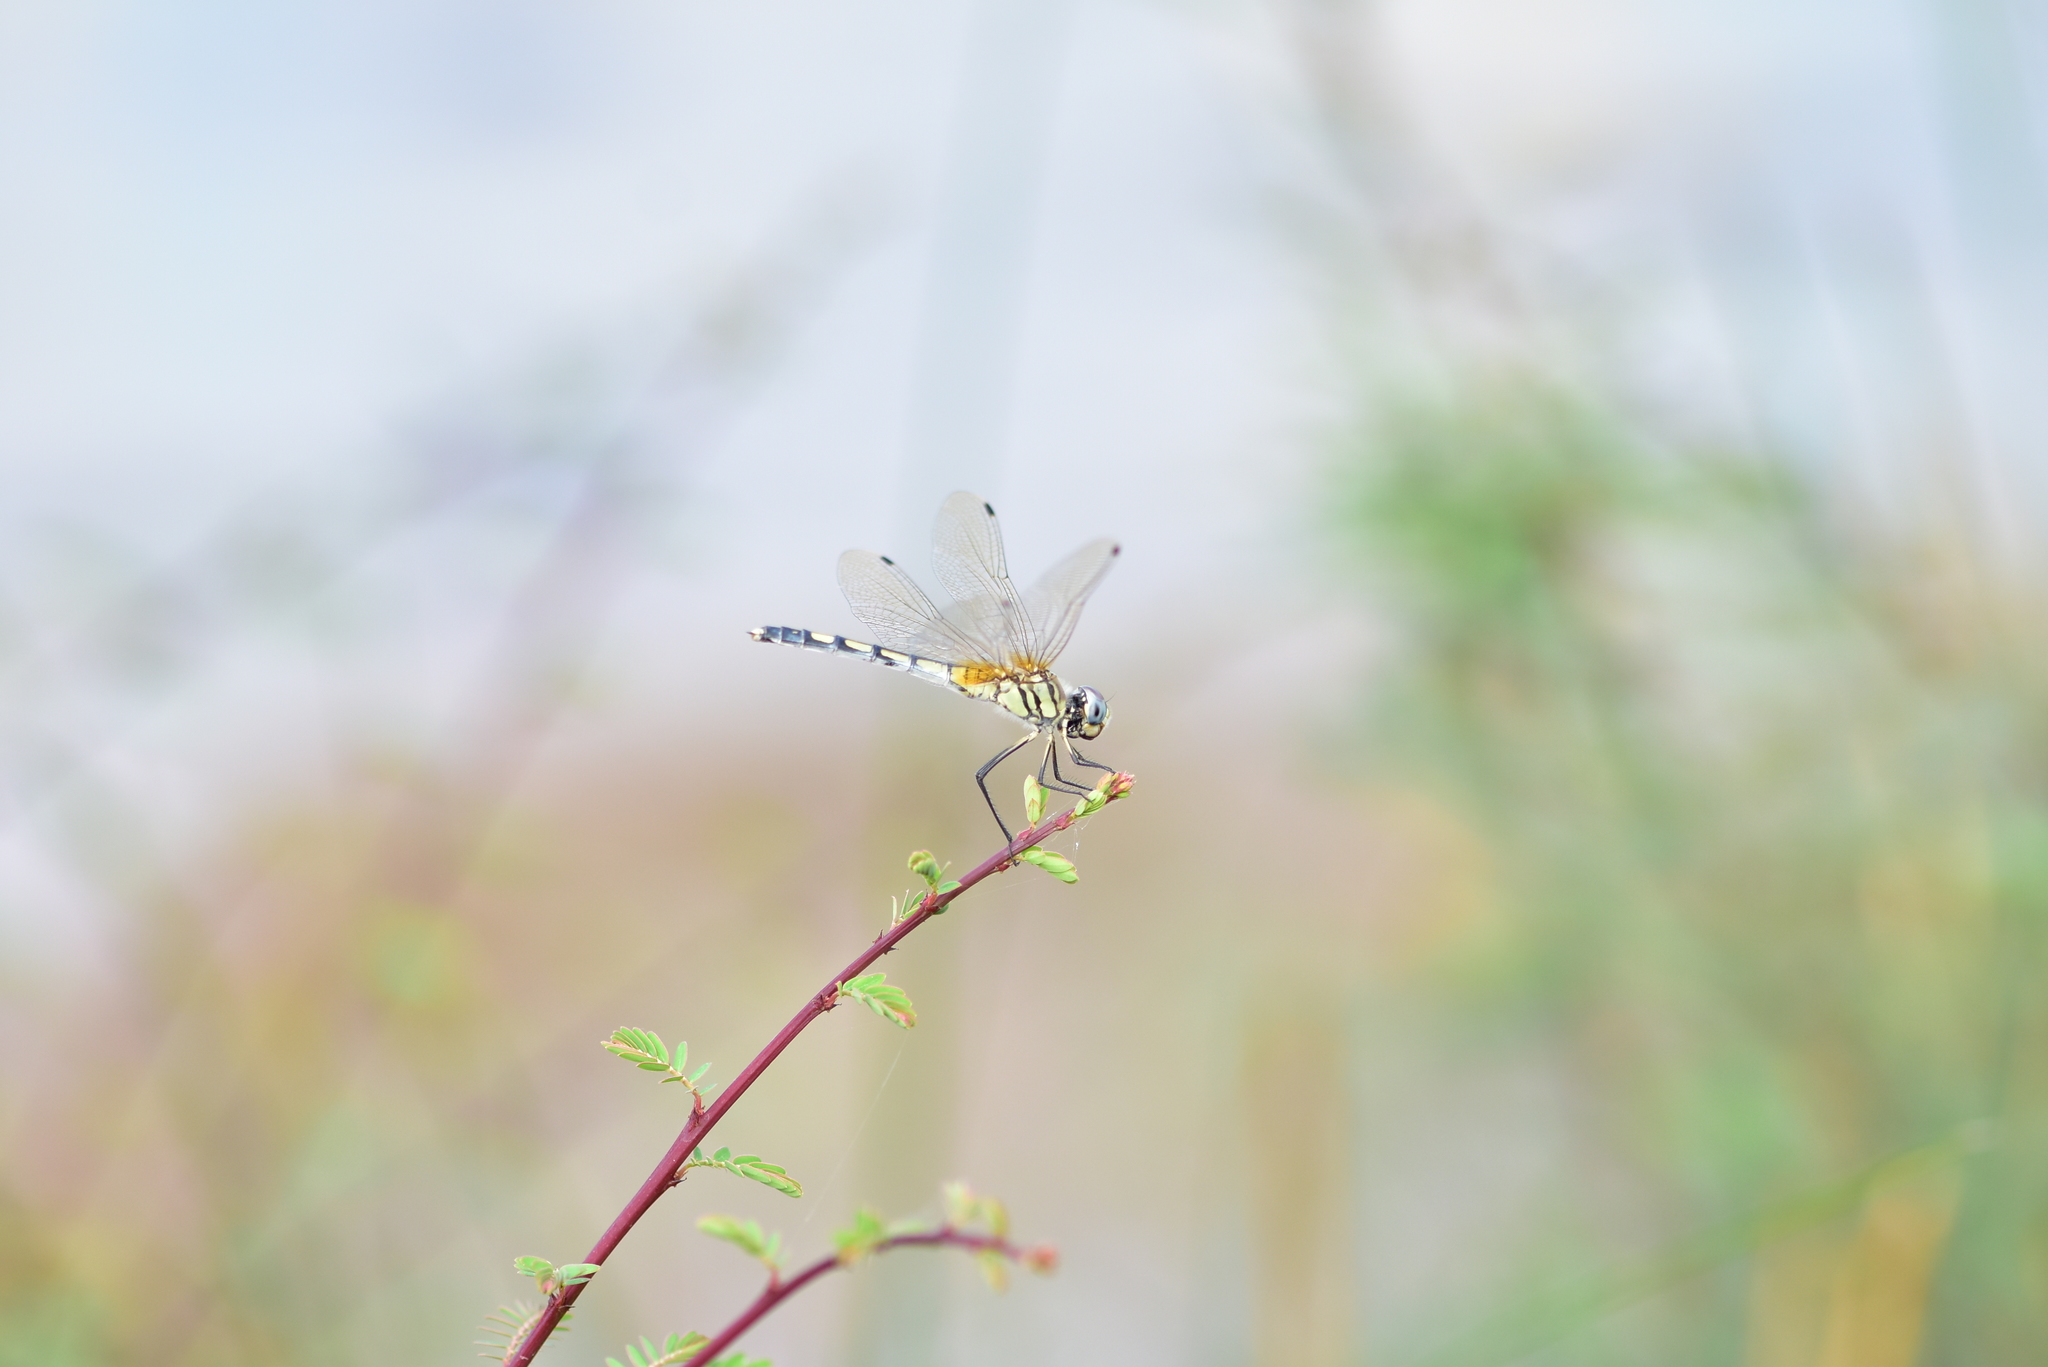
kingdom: Animalia
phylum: Arthropoda
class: Insecta
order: Odonata
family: Libellulidae
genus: Trithemis
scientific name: Trithemis pallidinervis
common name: Dancing dropwing
